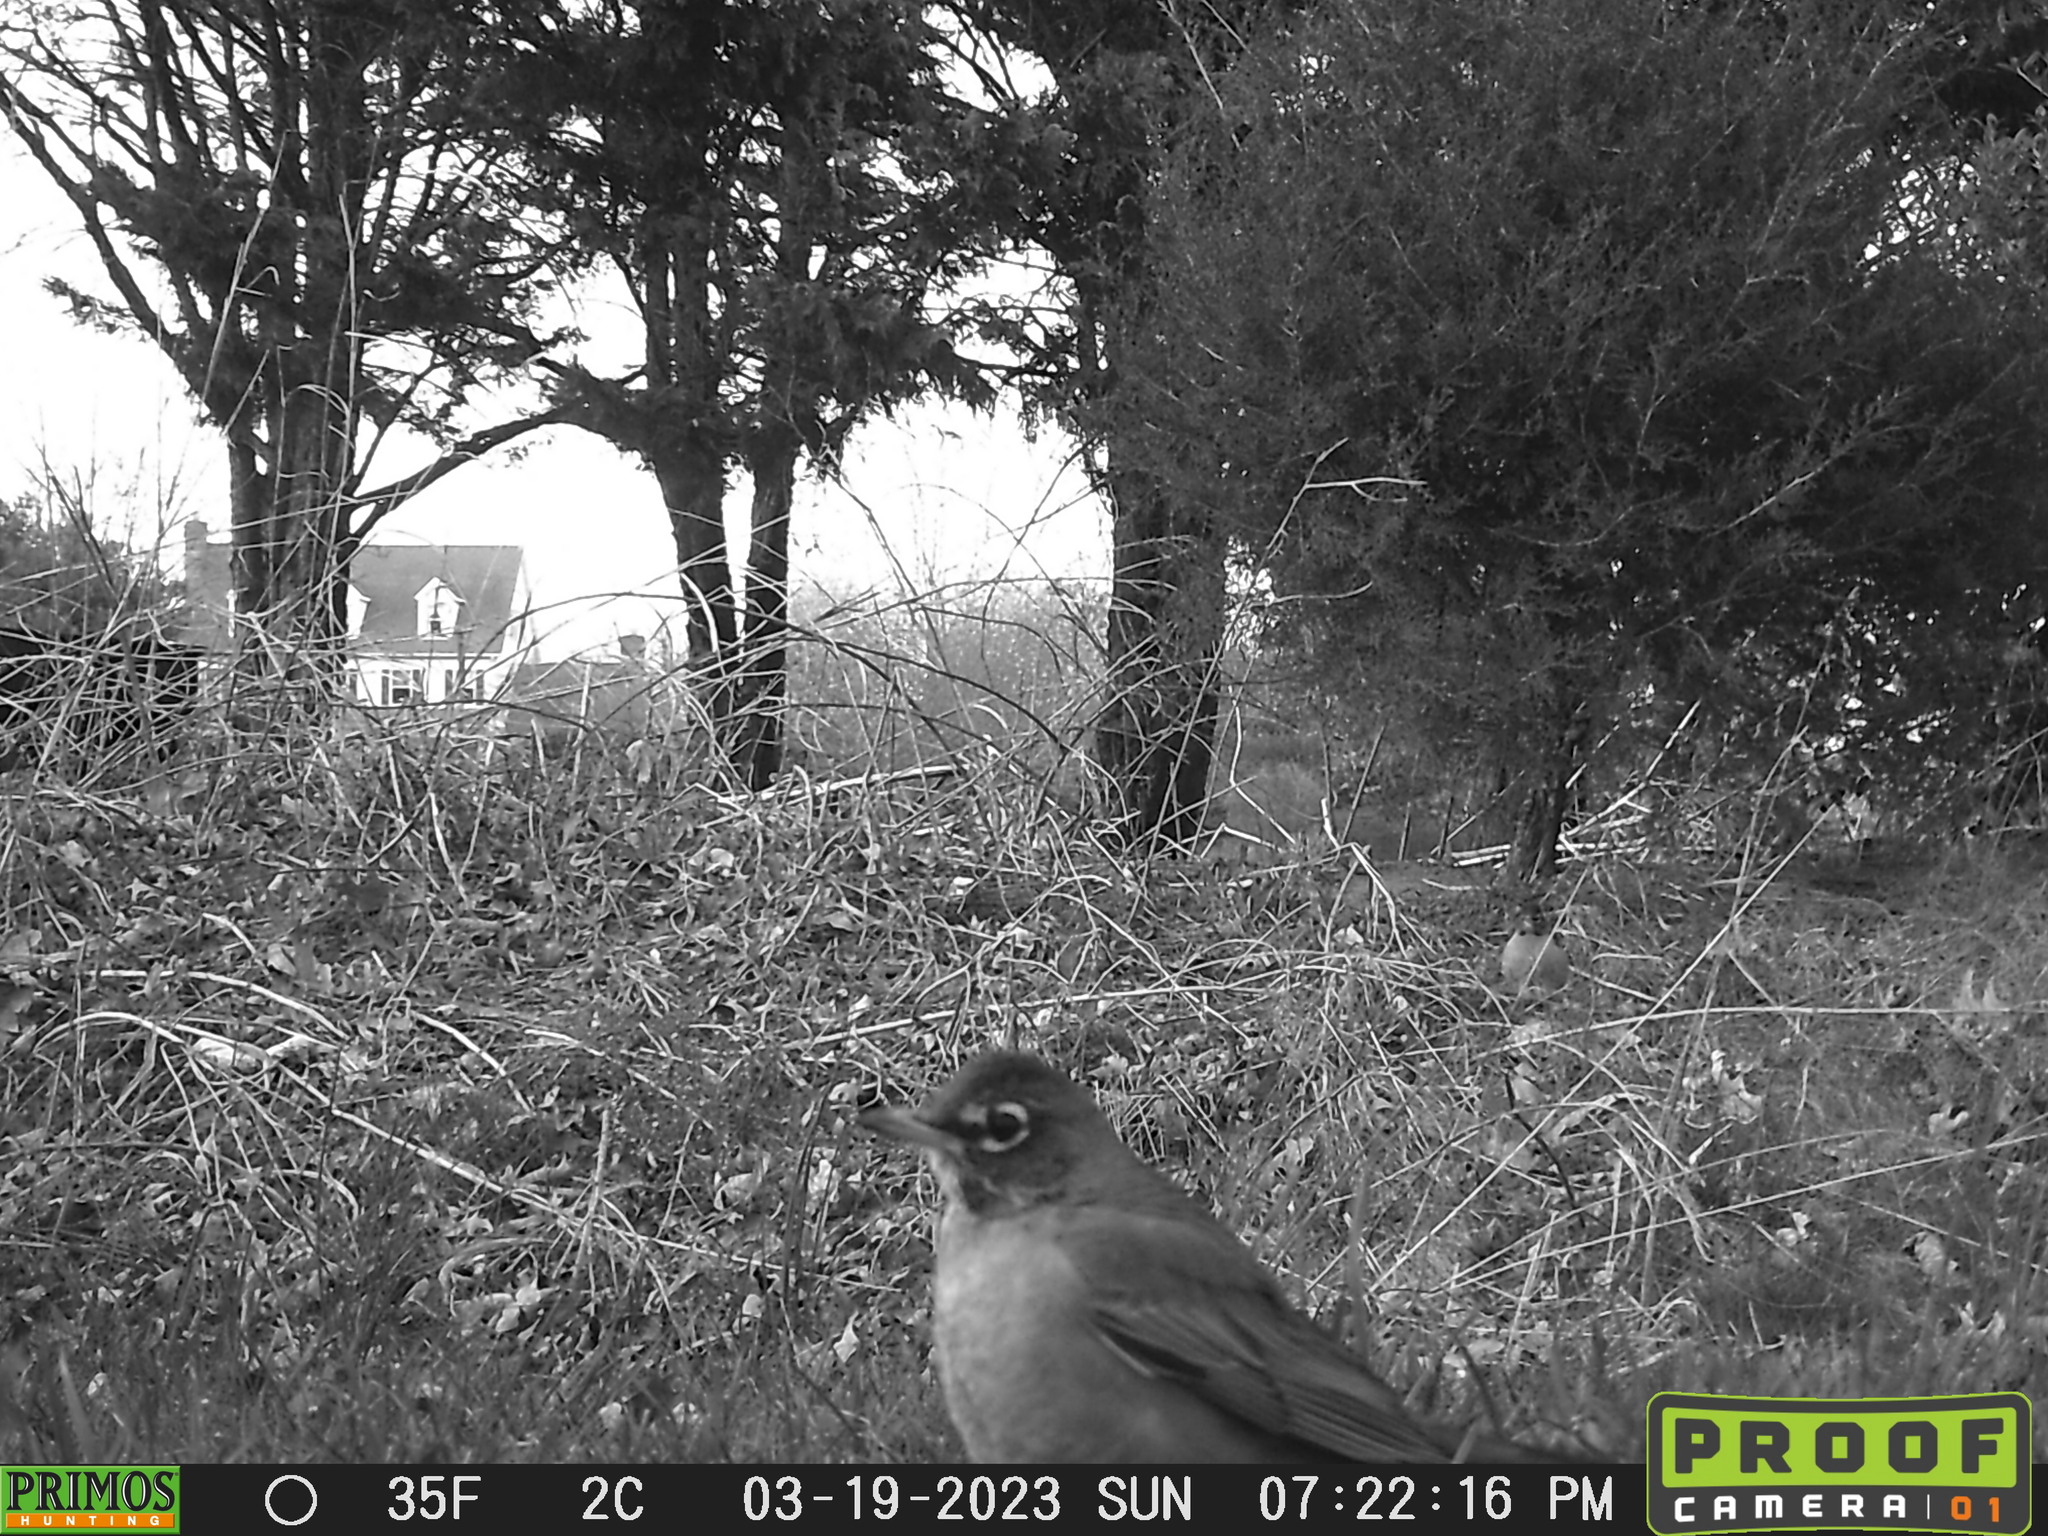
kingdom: Animalia
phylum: Chordata
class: Aves
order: Passeriformes
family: Turdidae
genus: Turdus
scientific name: Turdus migratorius
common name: American robin
